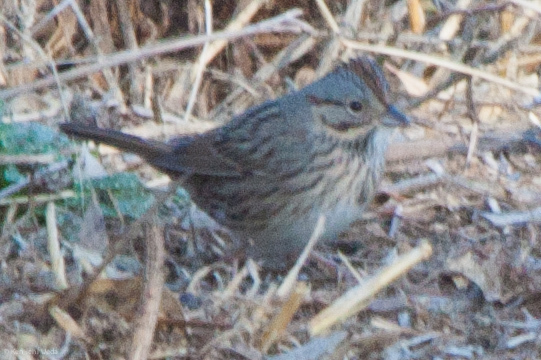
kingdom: Animalia
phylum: Chordata
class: Aves
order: Passeriformes
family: Passerellidae
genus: Melospiza
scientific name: Melospiza lincolnii
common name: Lincoln's sparrow
